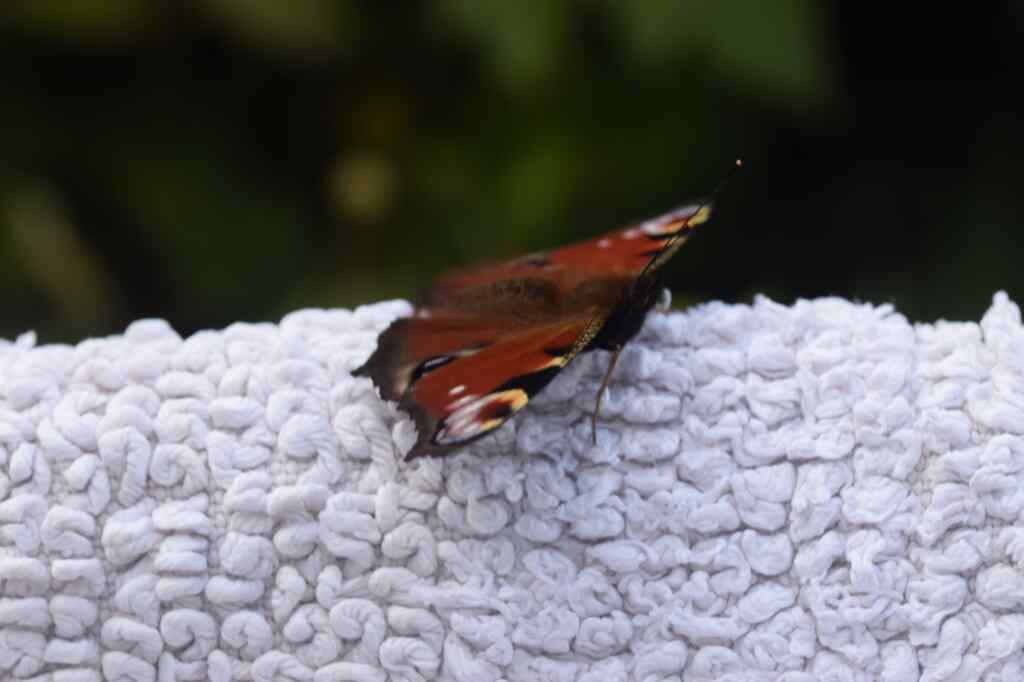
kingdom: Animalia
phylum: Arthropoda
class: Insecta
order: Lepidoptera
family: Nymphalidae
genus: Aglais
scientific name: Aglais io
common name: Peacock
